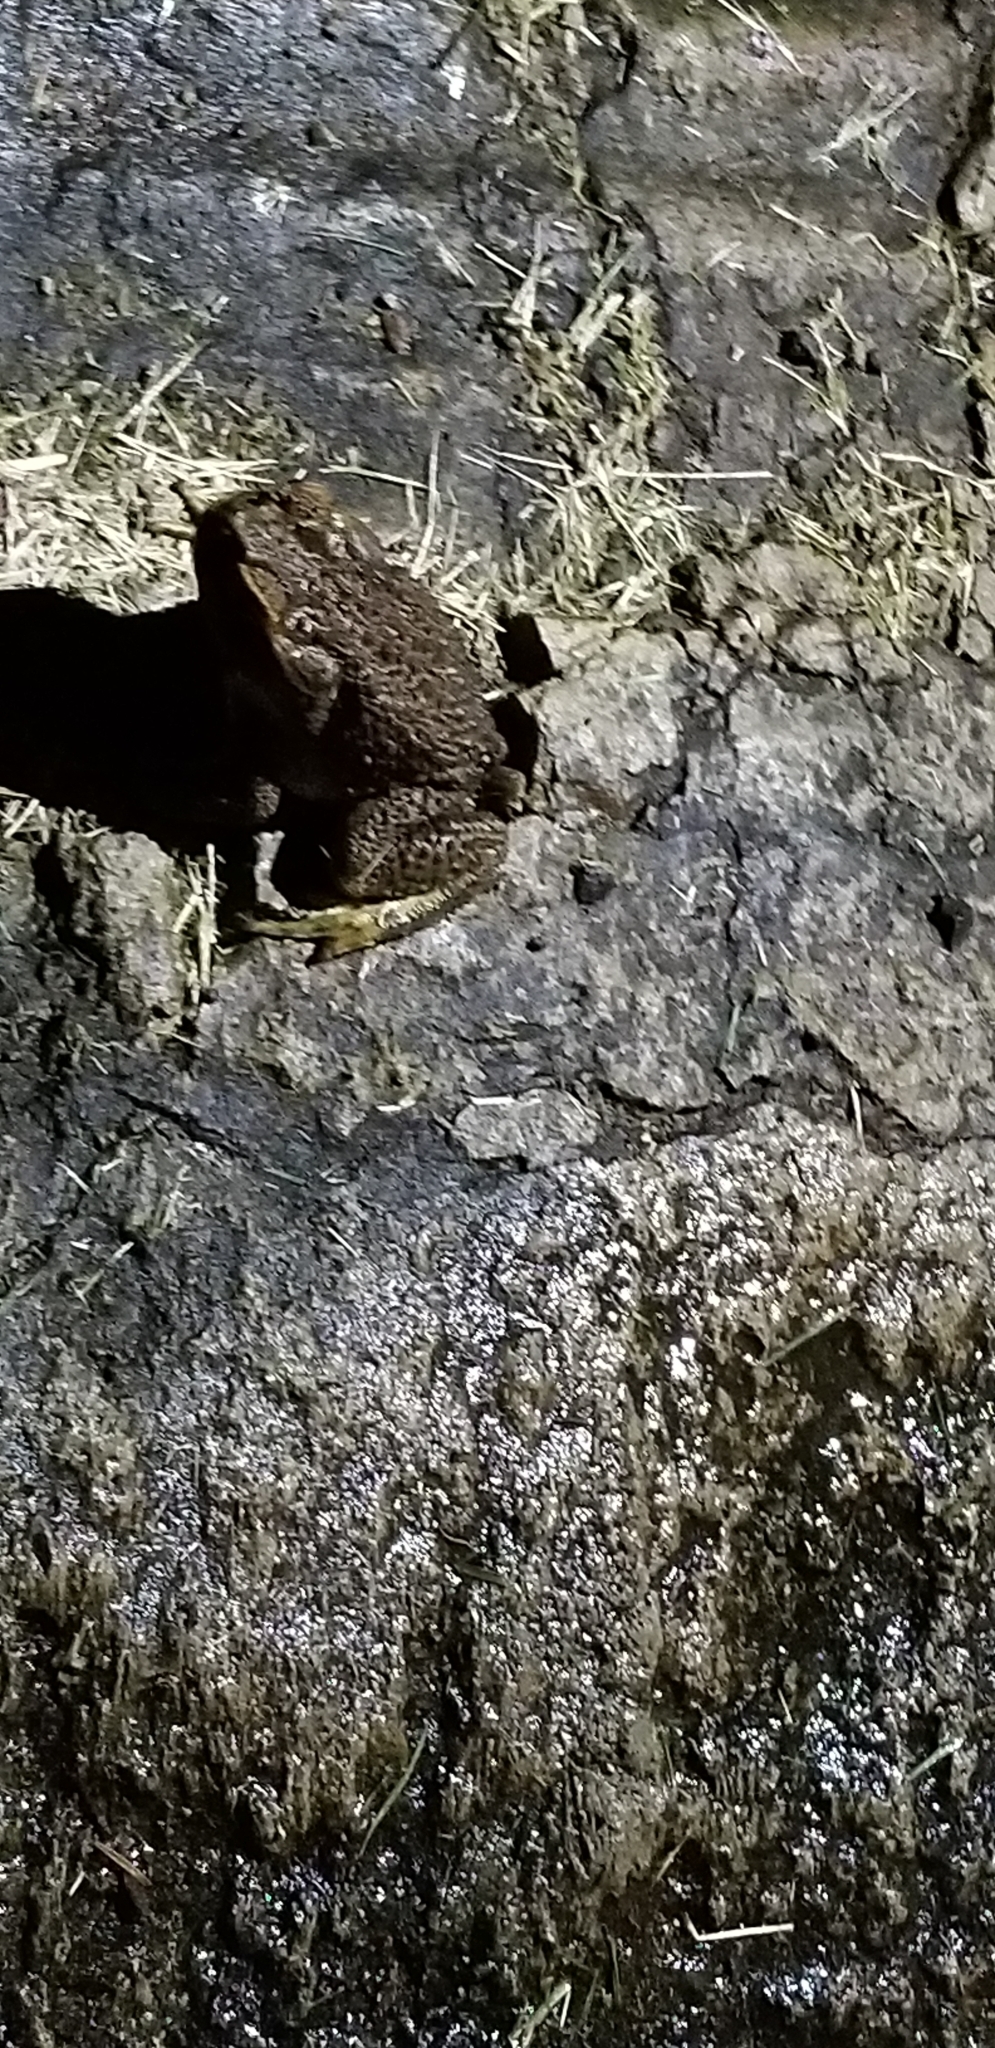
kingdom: Animalia
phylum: Chordata
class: Amphibia
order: Anura
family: Bufonidae
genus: Rhinella
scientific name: Rhinella marina
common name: Cane toad
